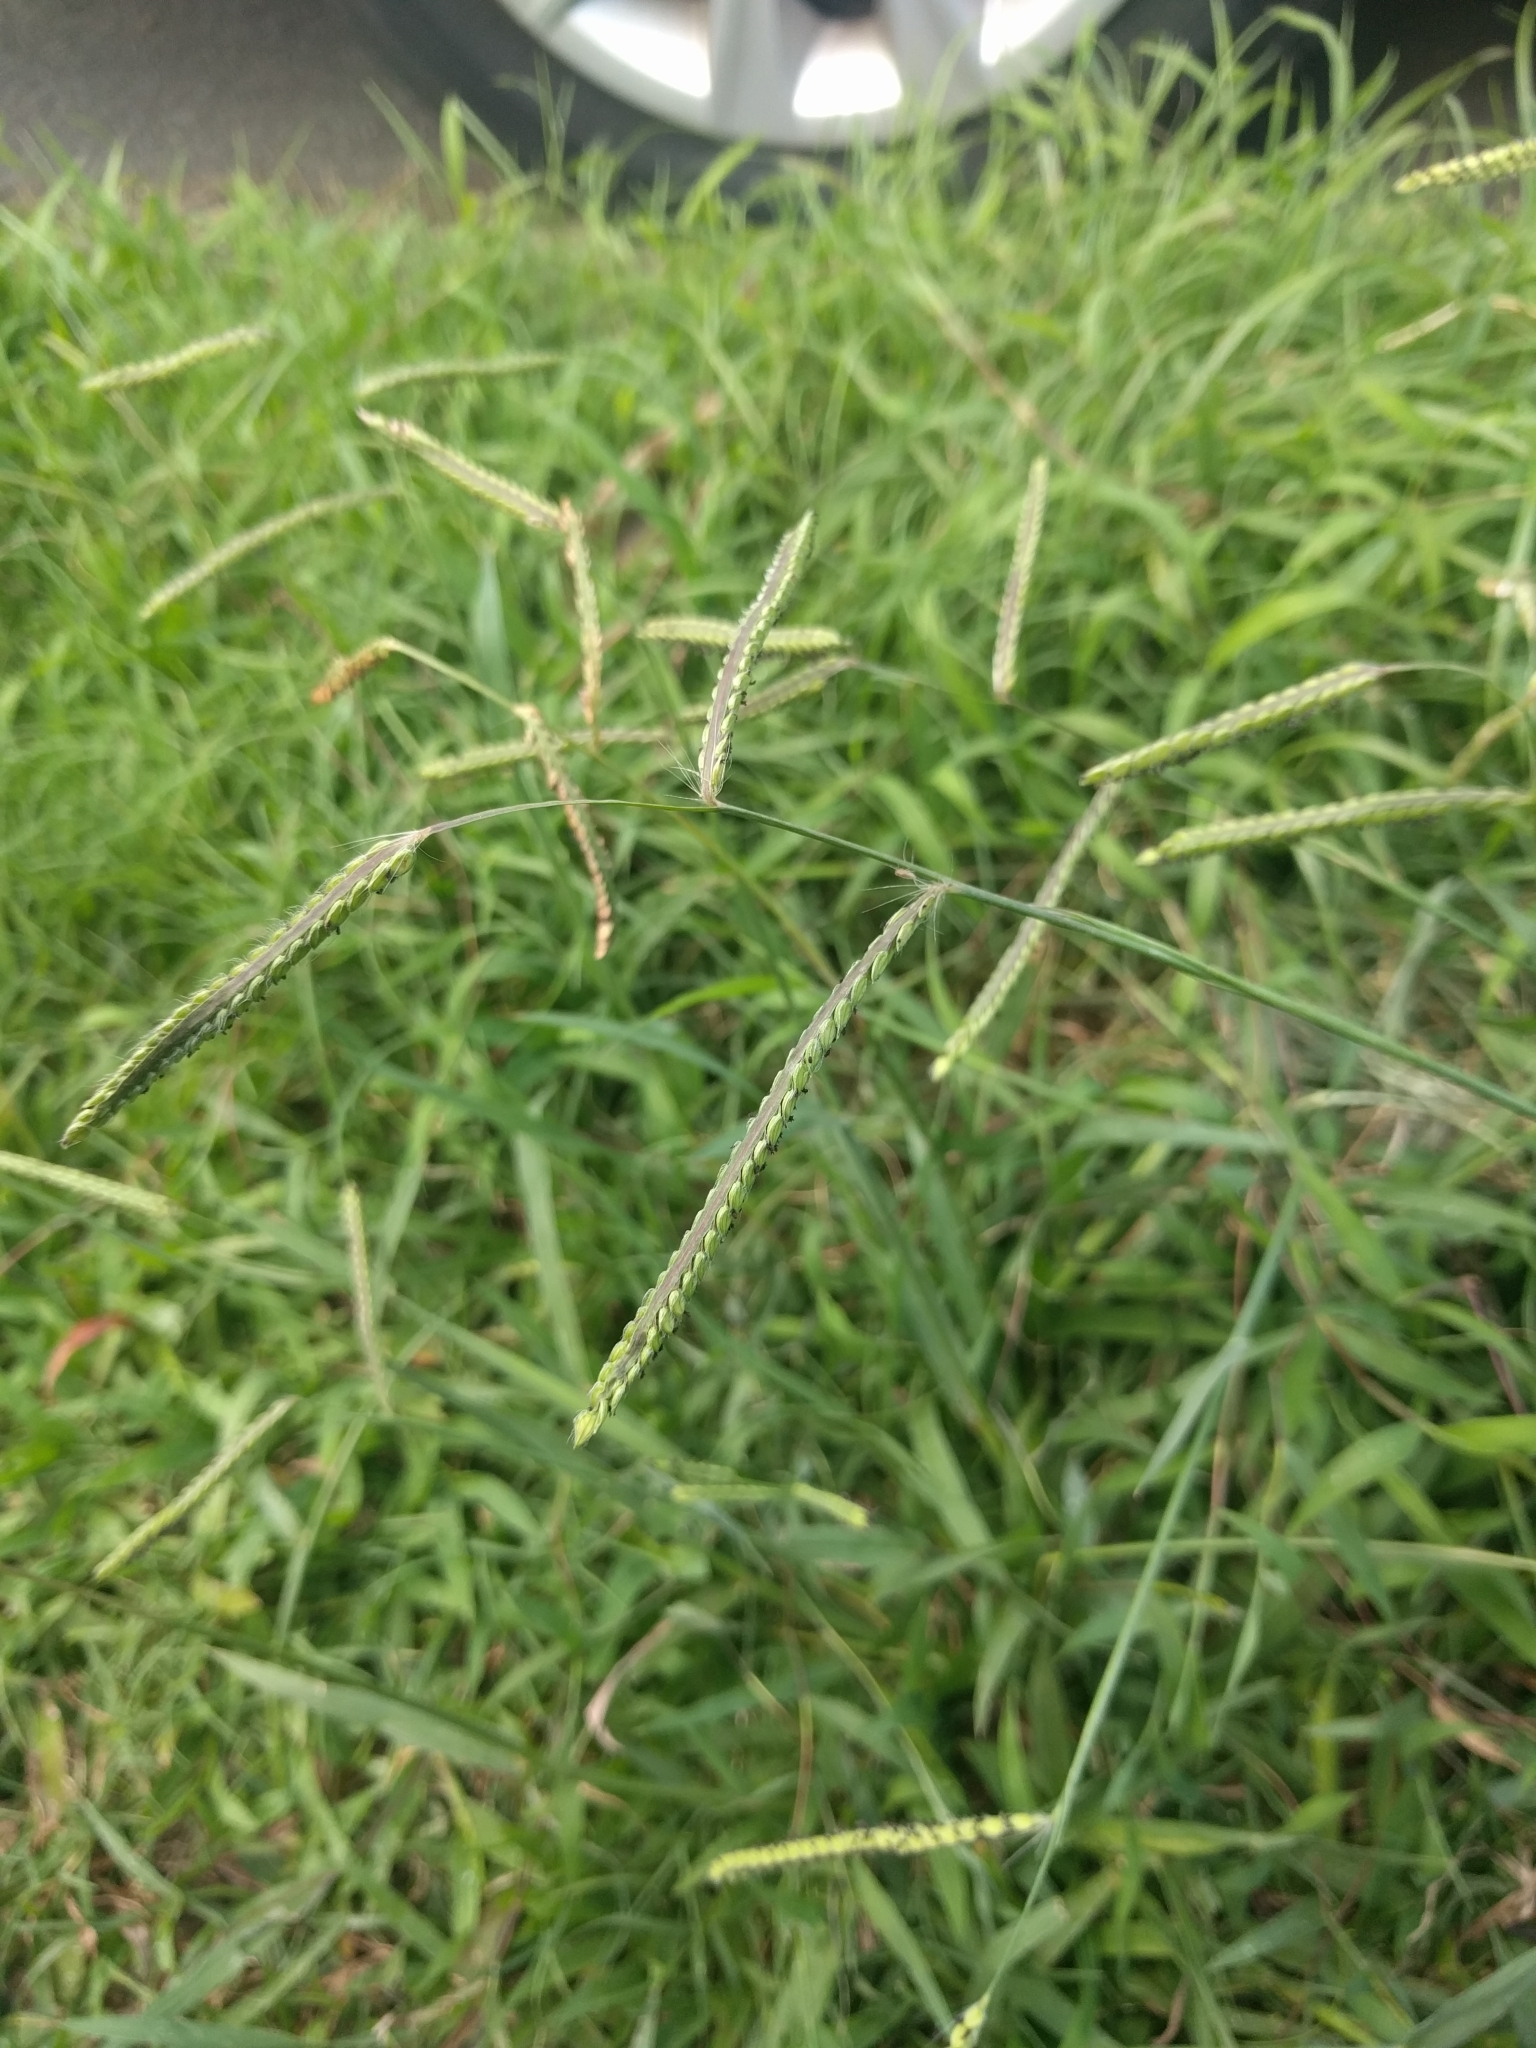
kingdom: Plantae
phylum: Tracheophyta
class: Liliopsida
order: Poales
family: Poaceae
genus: Paspalum
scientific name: Paspalum dilatatum
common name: Dallisgrass
